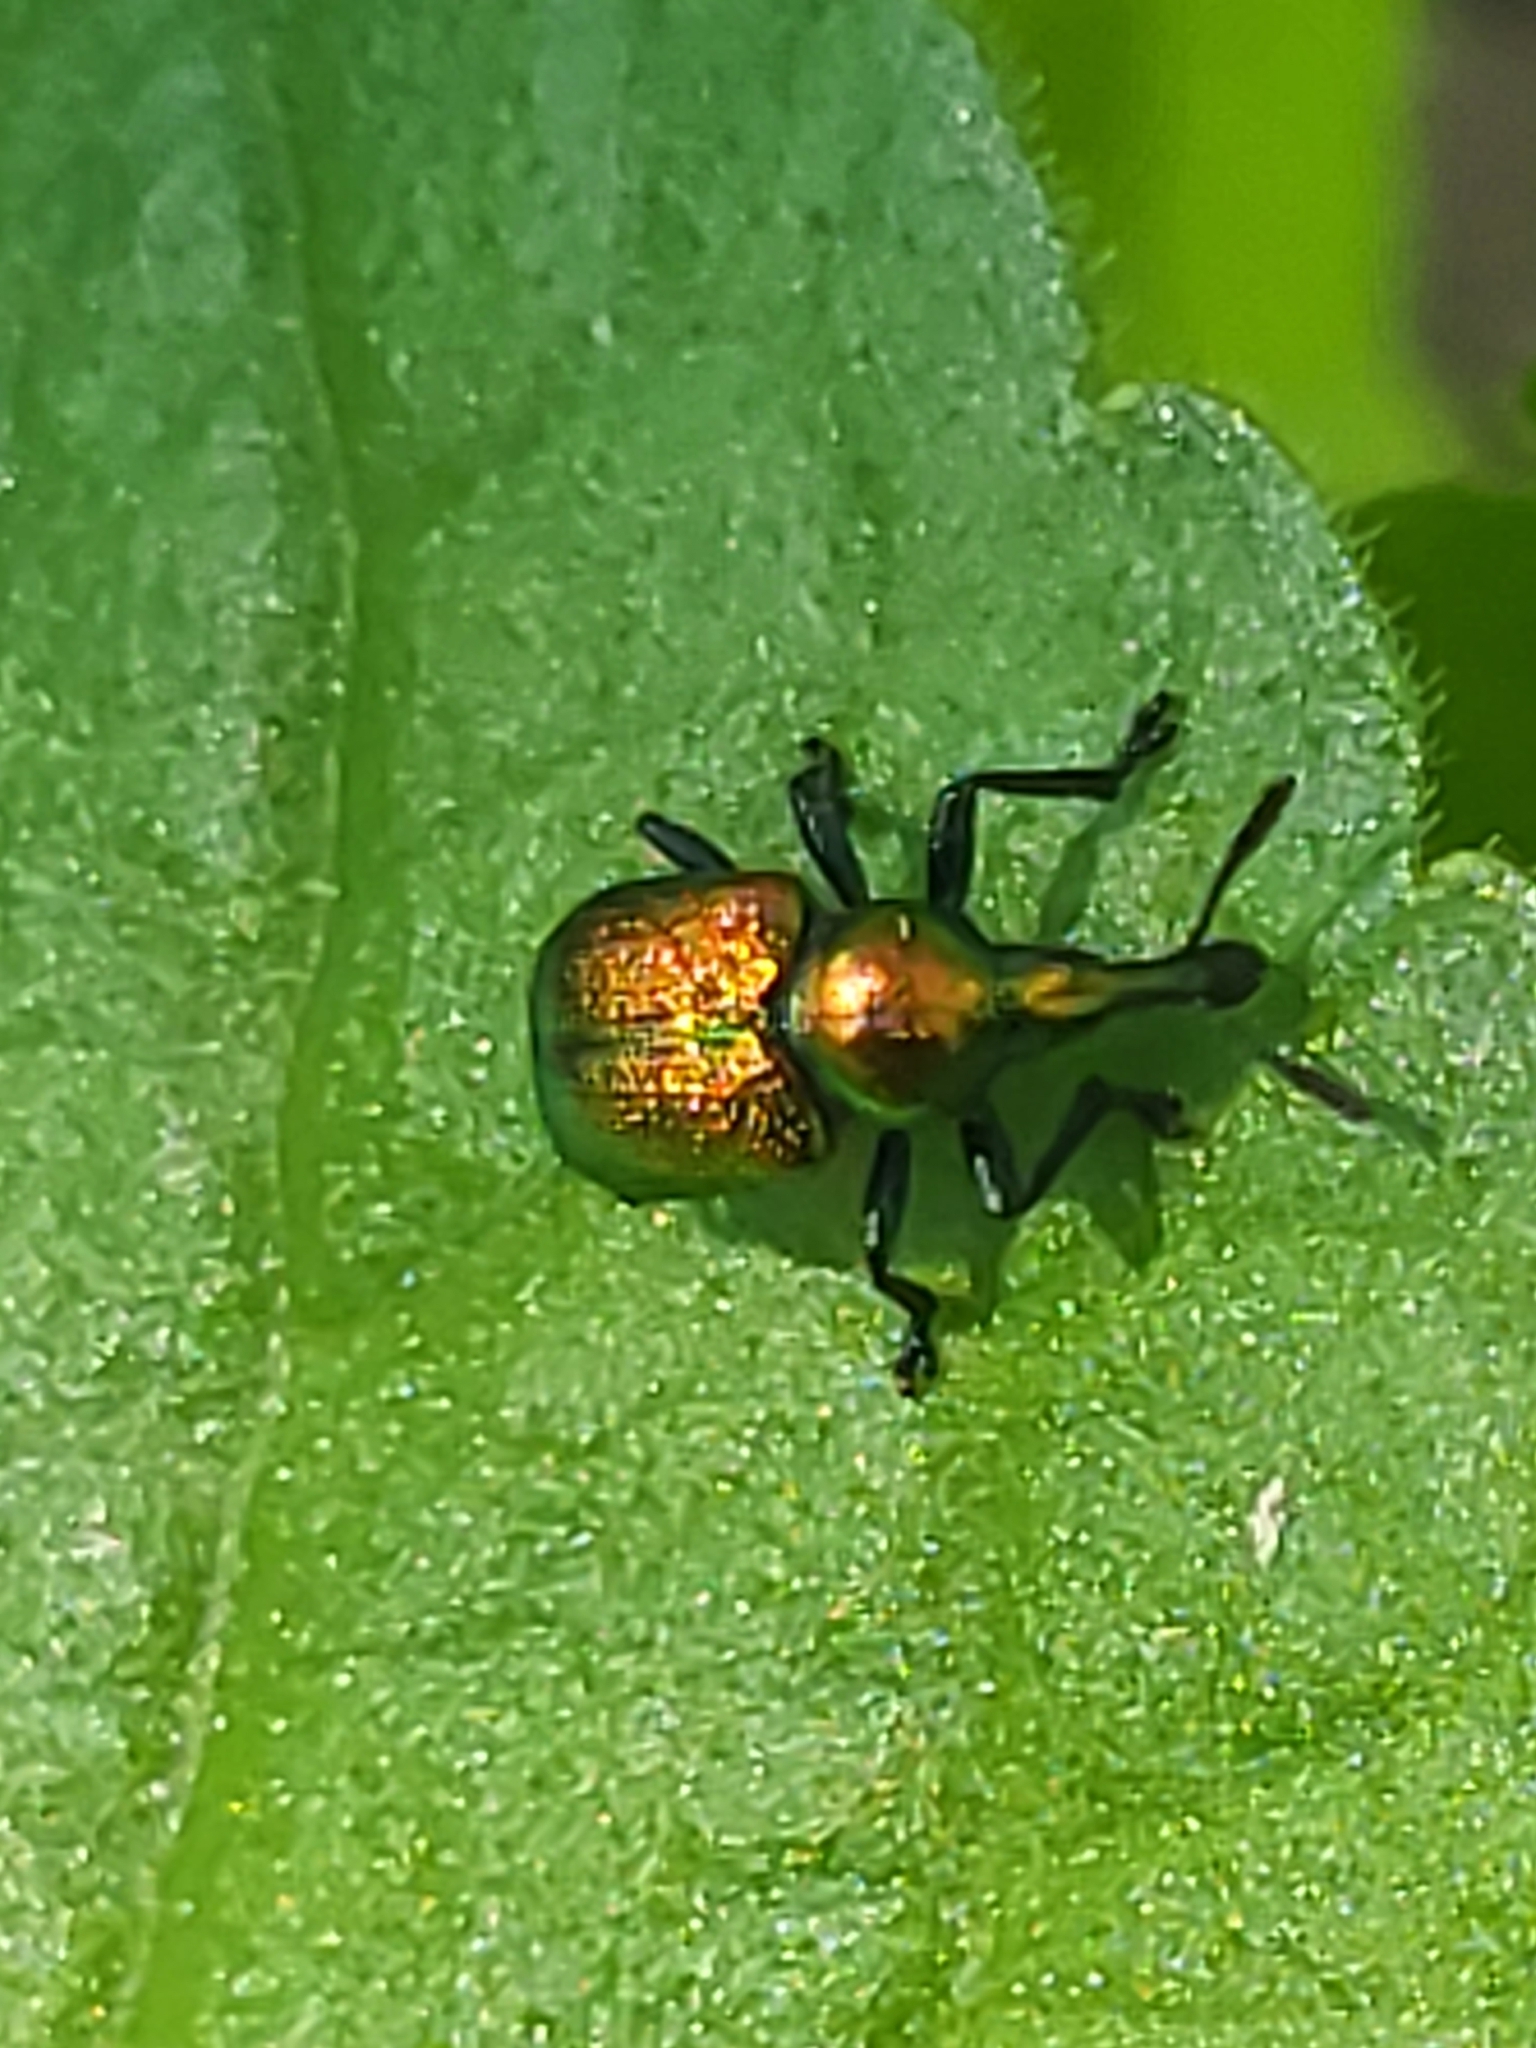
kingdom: Animalia
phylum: Arthropoda
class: Insecta
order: Coleoptera
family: Attelabidae
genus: Byctiscus
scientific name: Byctiscus populi
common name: Leaf-rolling weevil
